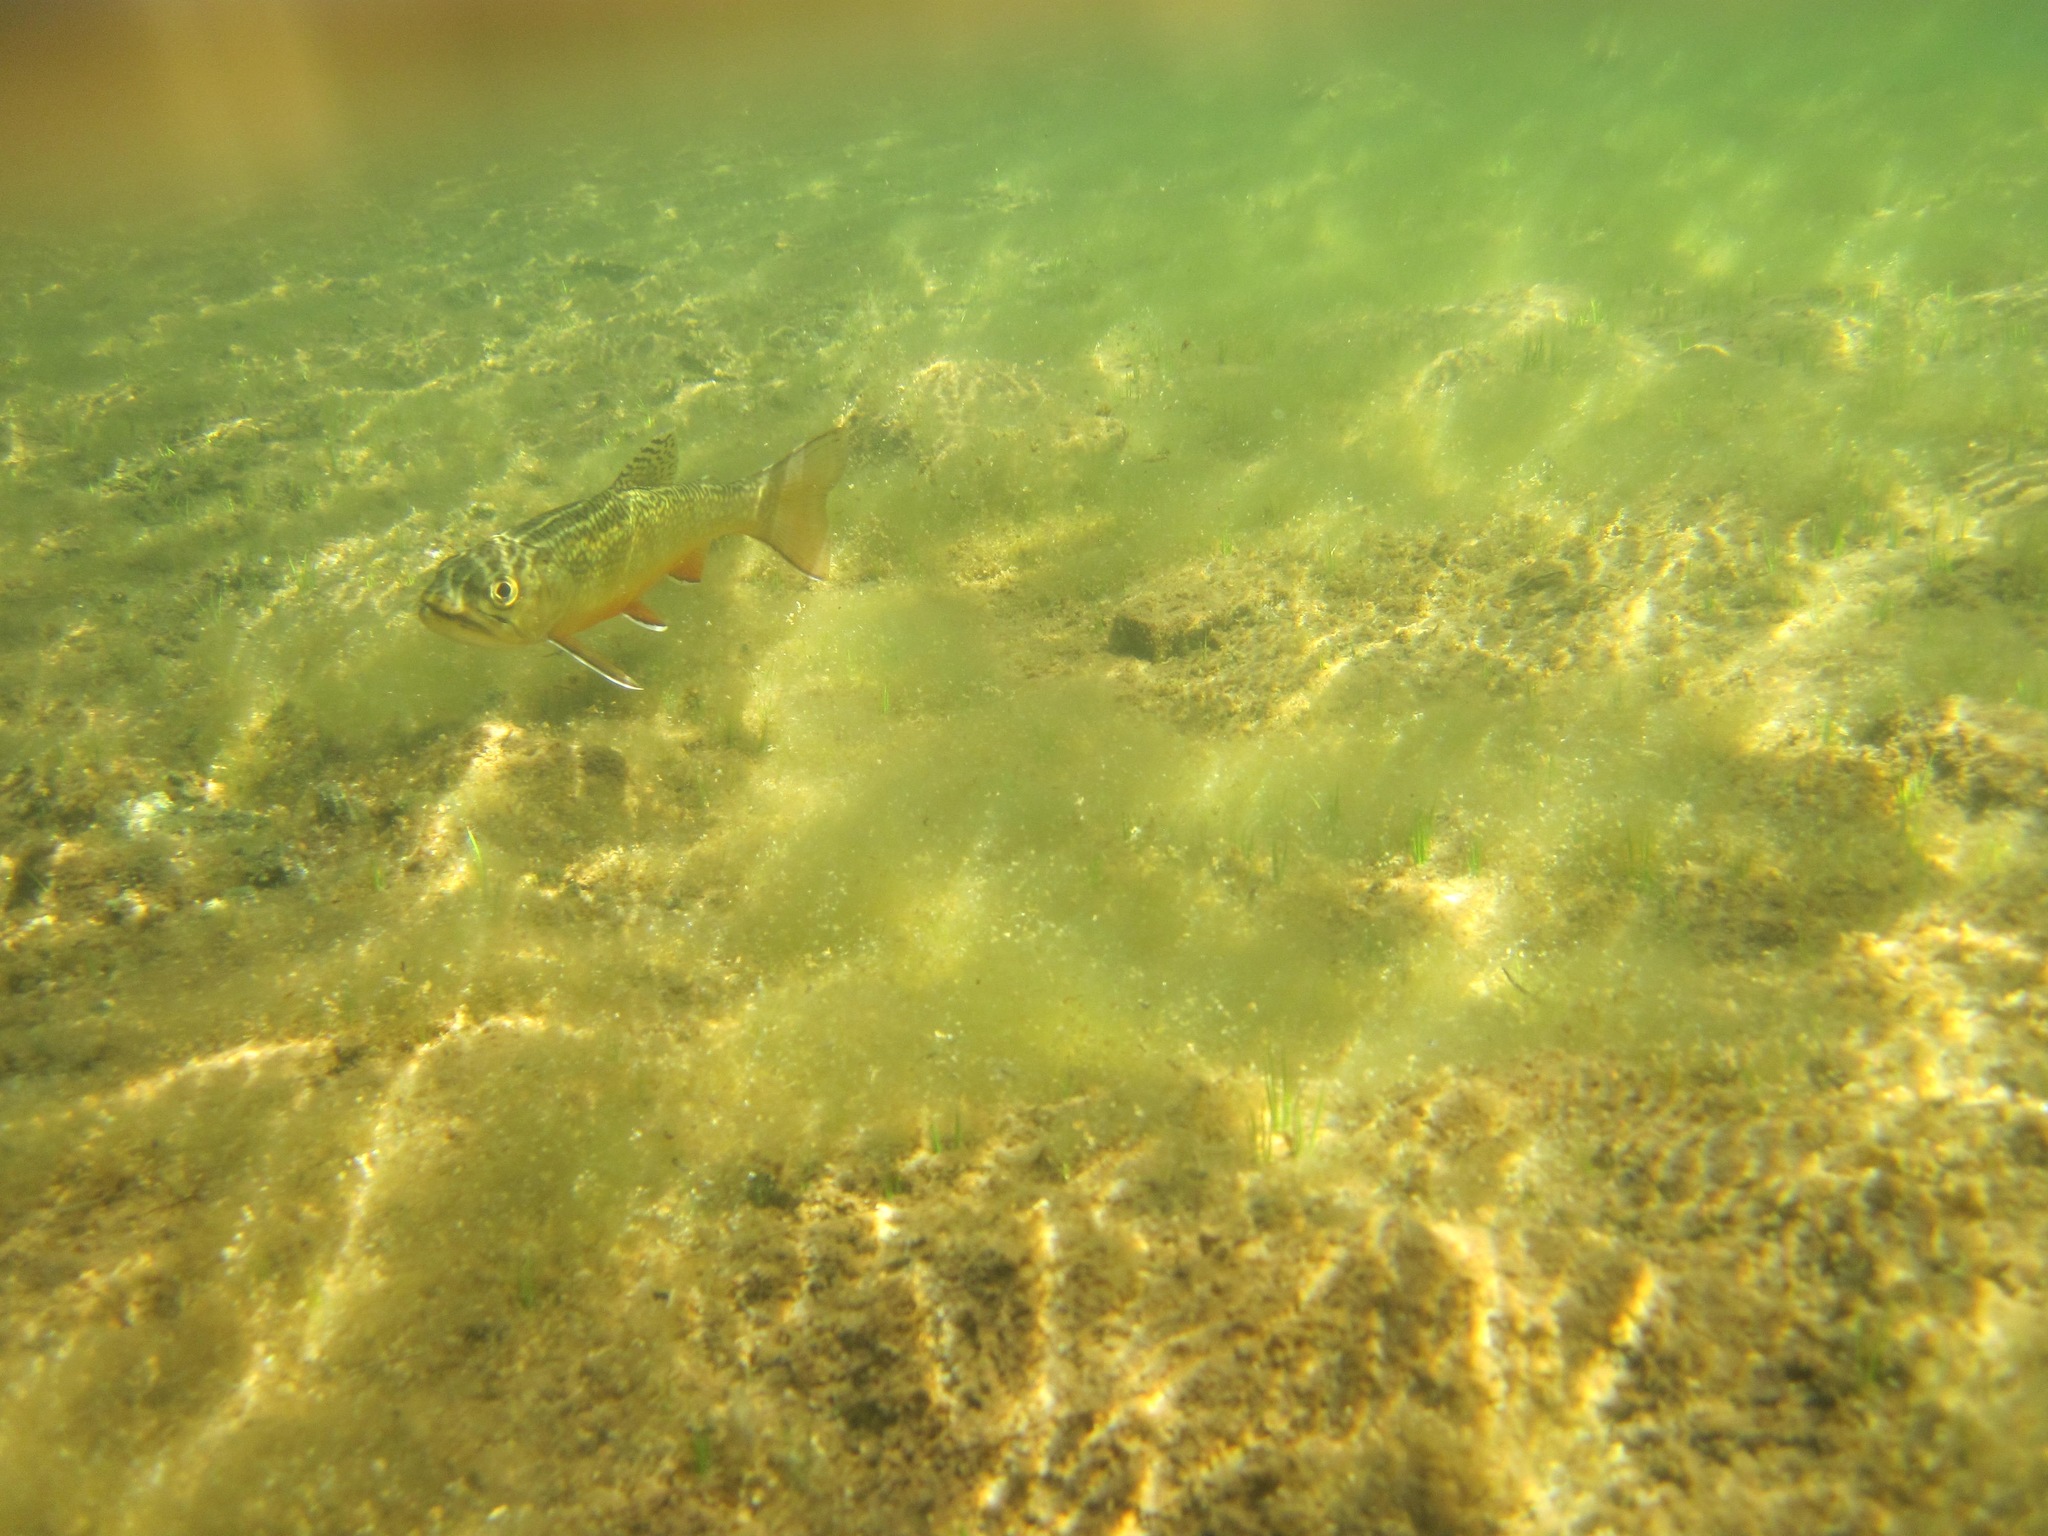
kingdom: Animalia
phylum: Chordata
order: Salmoniformes
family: Salmonidae
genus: Salvelinus
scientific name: Salvelinus fontinalis
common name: Brook trout
